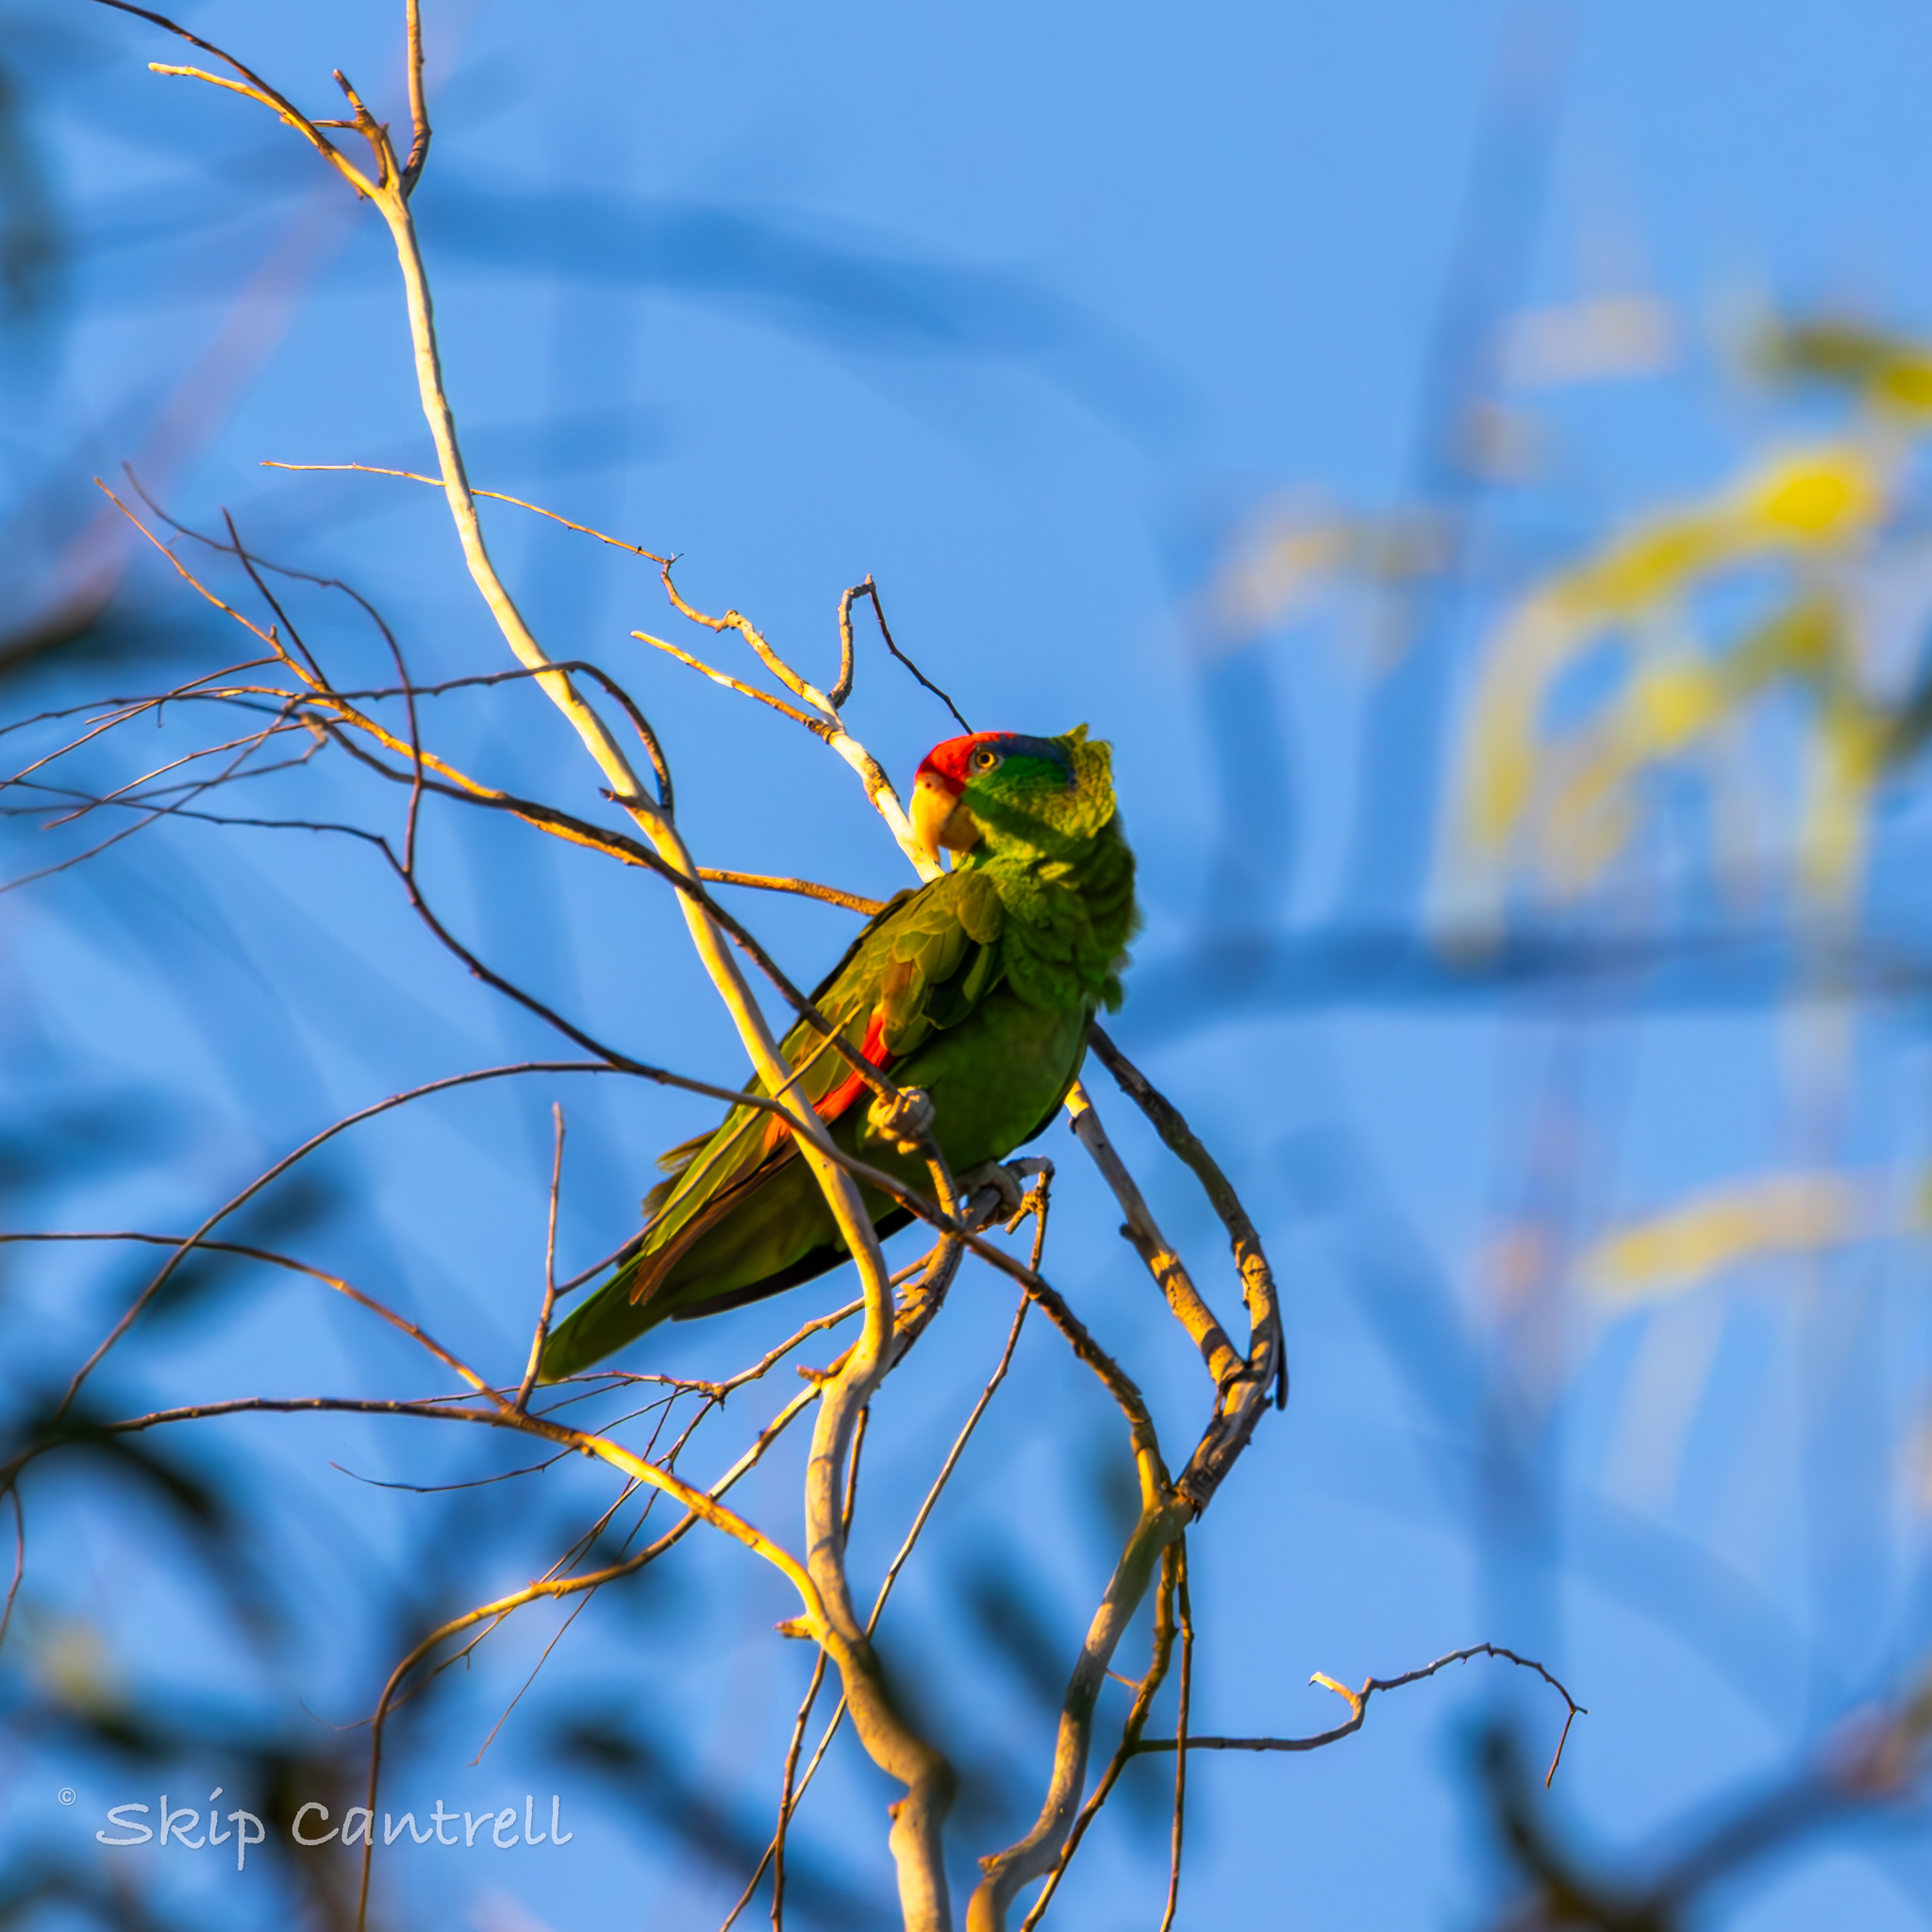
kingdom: Animalia
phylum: Chordata
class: Aves
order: Psittaciformes
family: Psittacidae
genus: Amazona
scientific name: Amazona viridigenalis
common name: Red-crowned amazon
